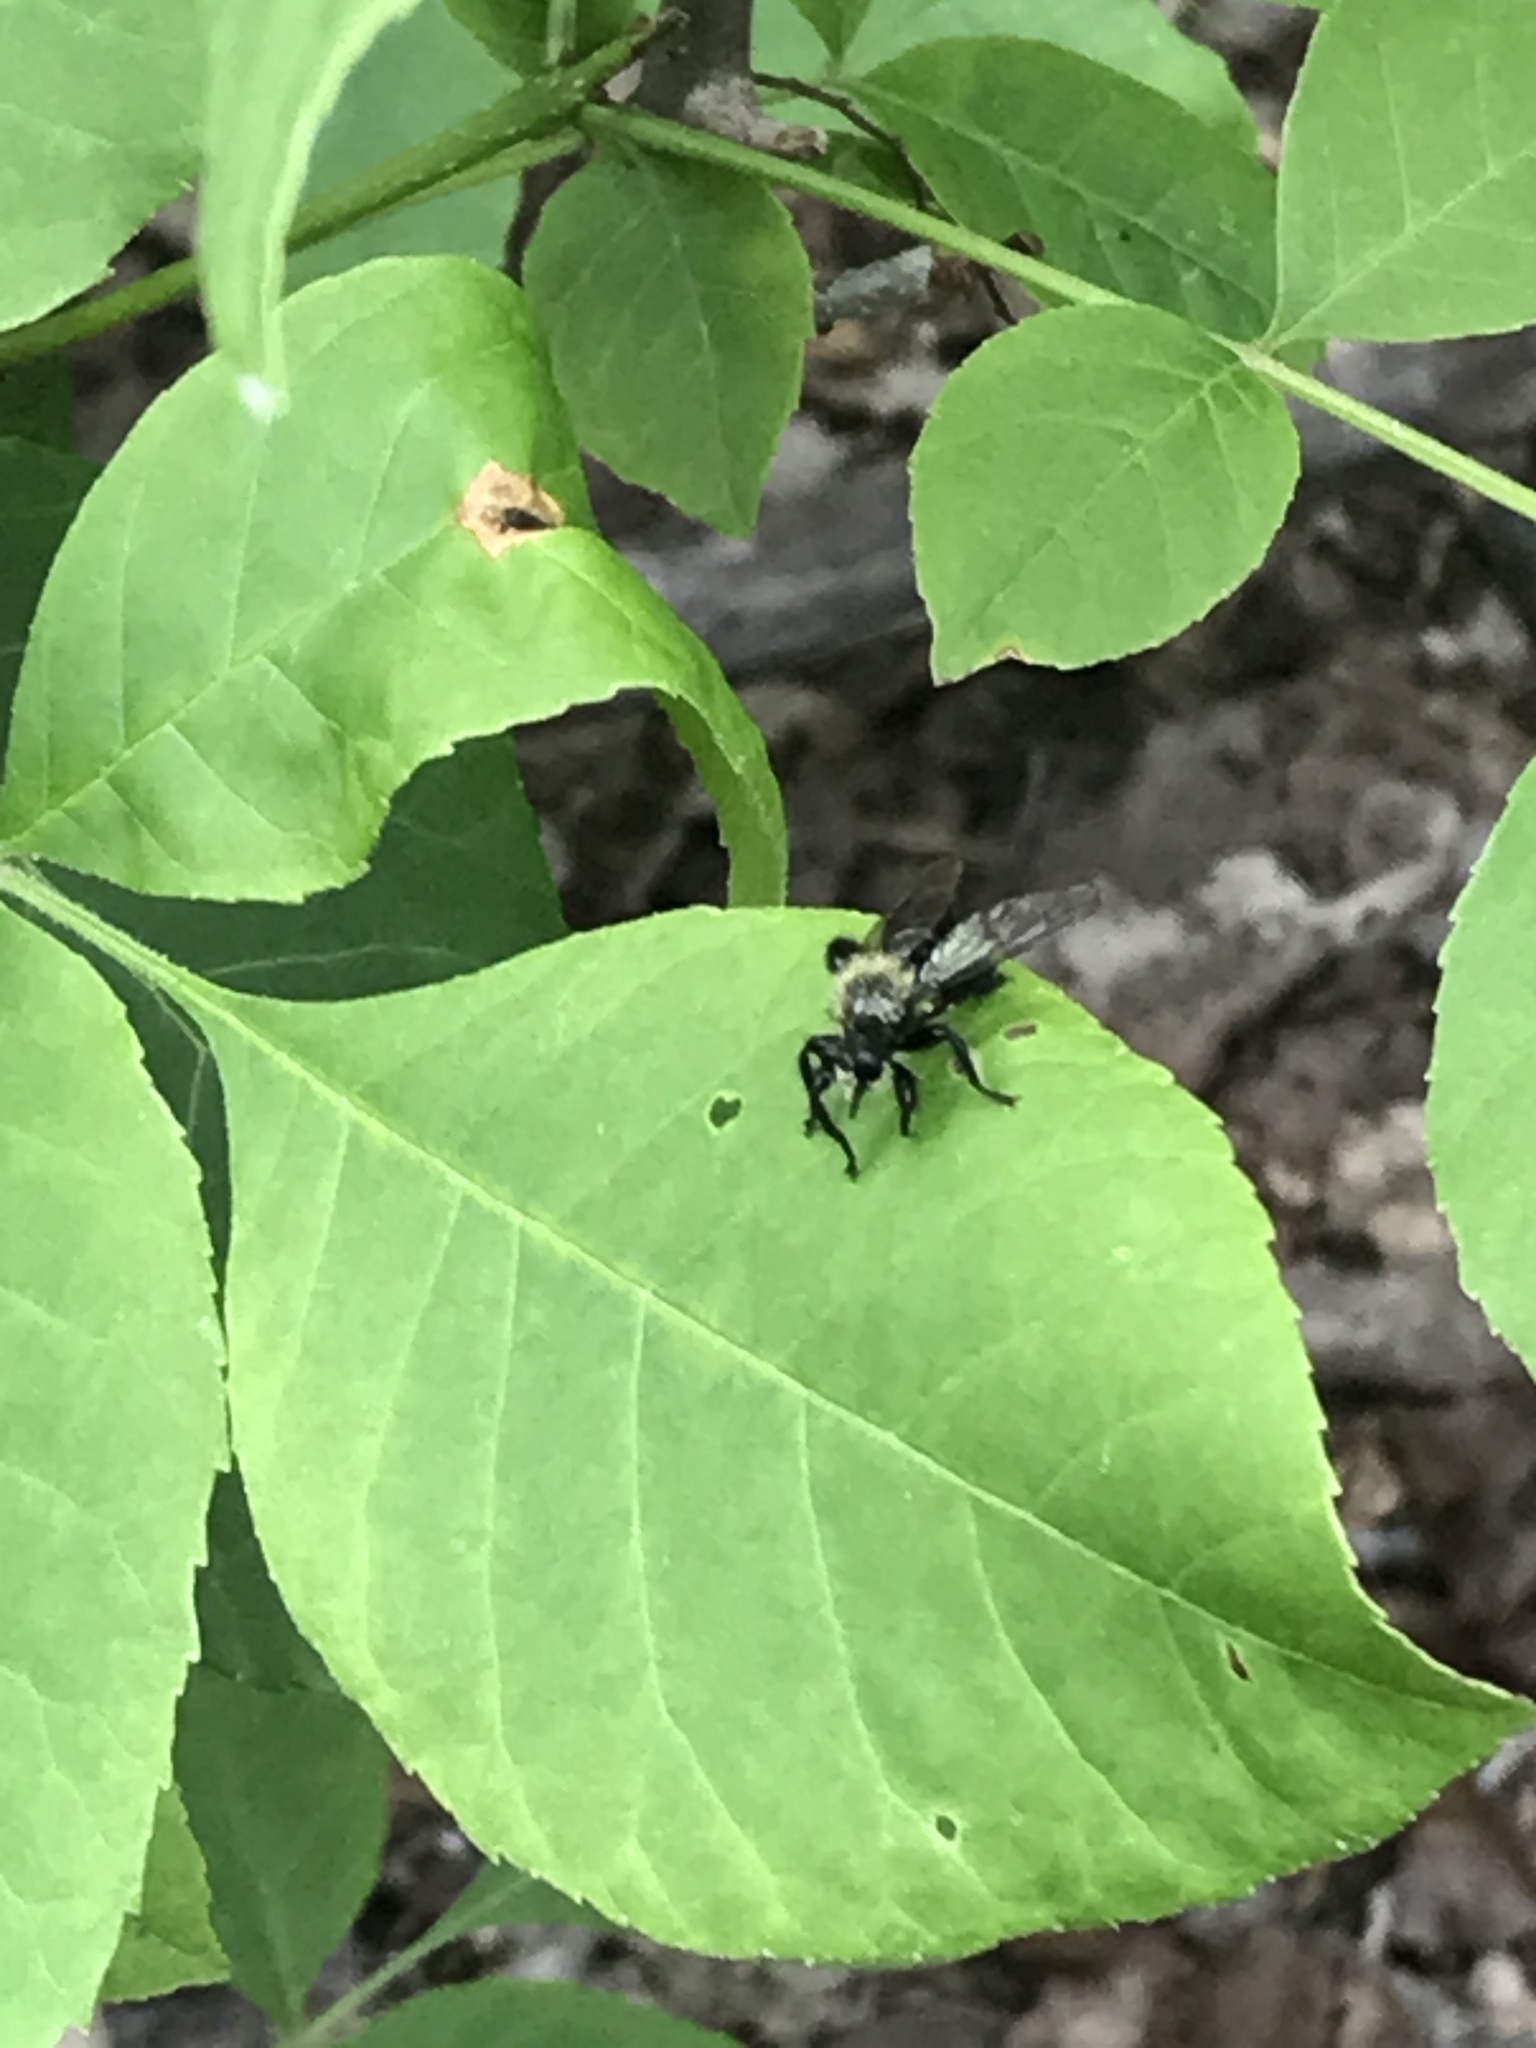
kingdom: Animalia
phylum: Arthropoda
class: Insecta
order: Diptera
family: Asilidae
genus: Laphria
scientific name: Laphria flavicollis
